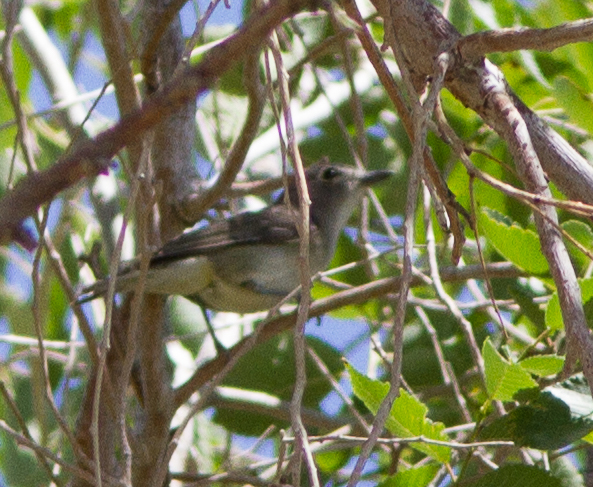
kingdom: Animalia
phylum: Chordata
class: Aves
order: Passeriformes
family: Vireonidae
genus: Vireo
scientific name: Vireo cassinii
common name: Cassin's vireo
